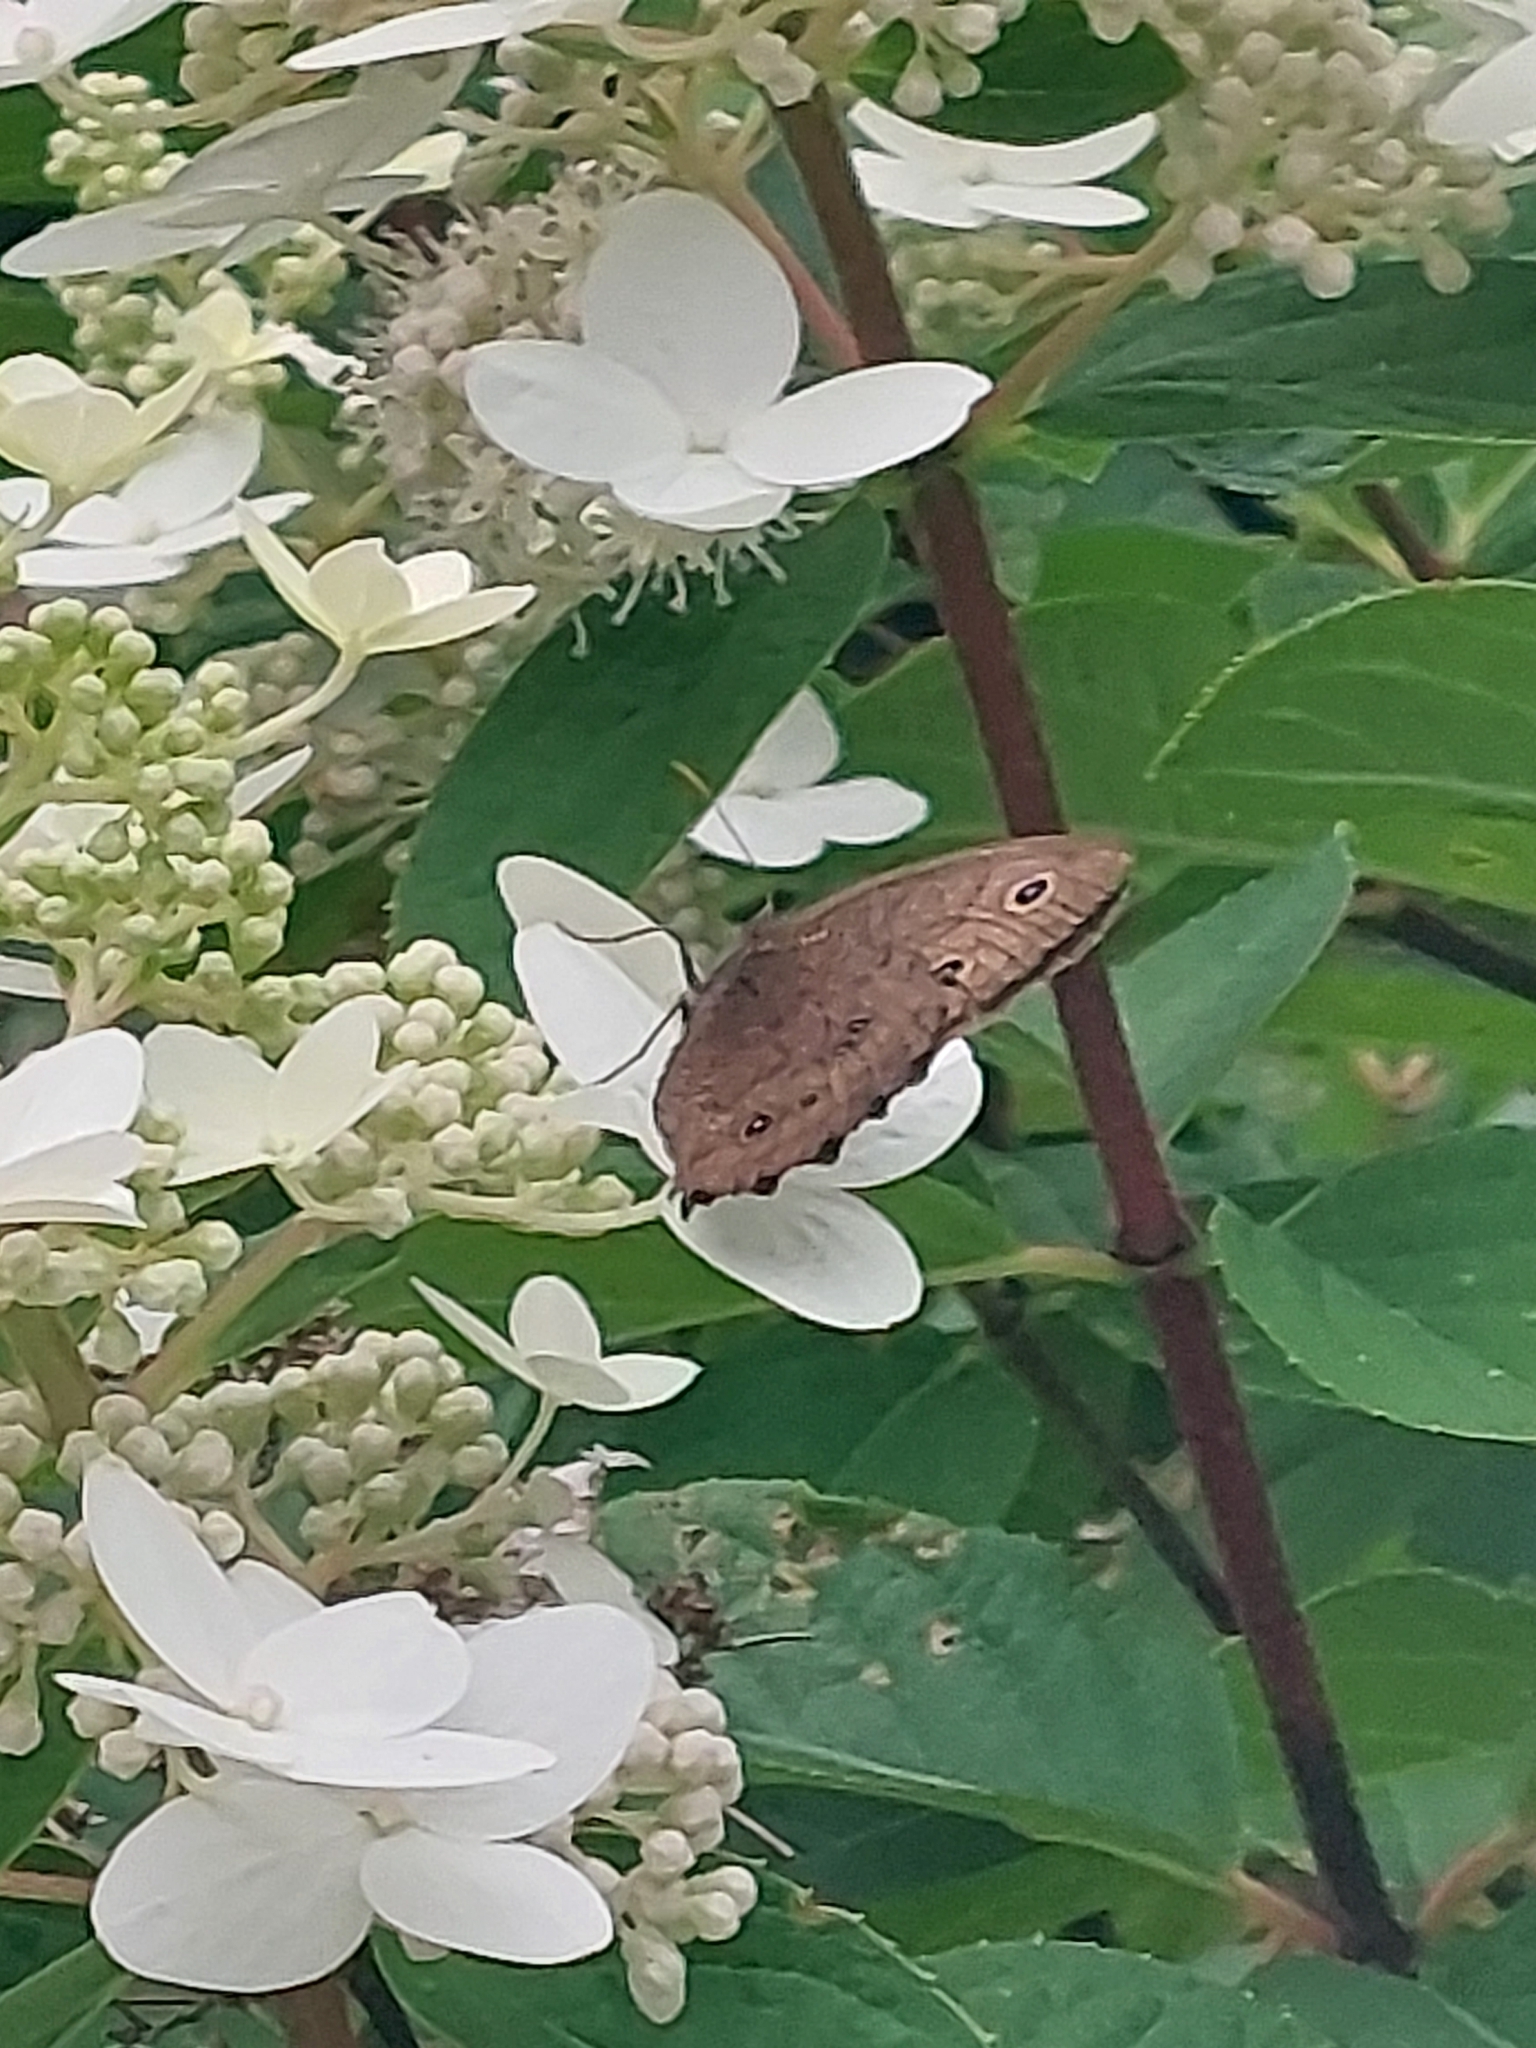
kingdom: Animalia
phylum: Arthropoda
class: Insecta
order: Lepidoptera
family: Nymphalidae
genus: Cercyonis
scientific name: Cercyonis pegala
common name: Common wood-nymph
